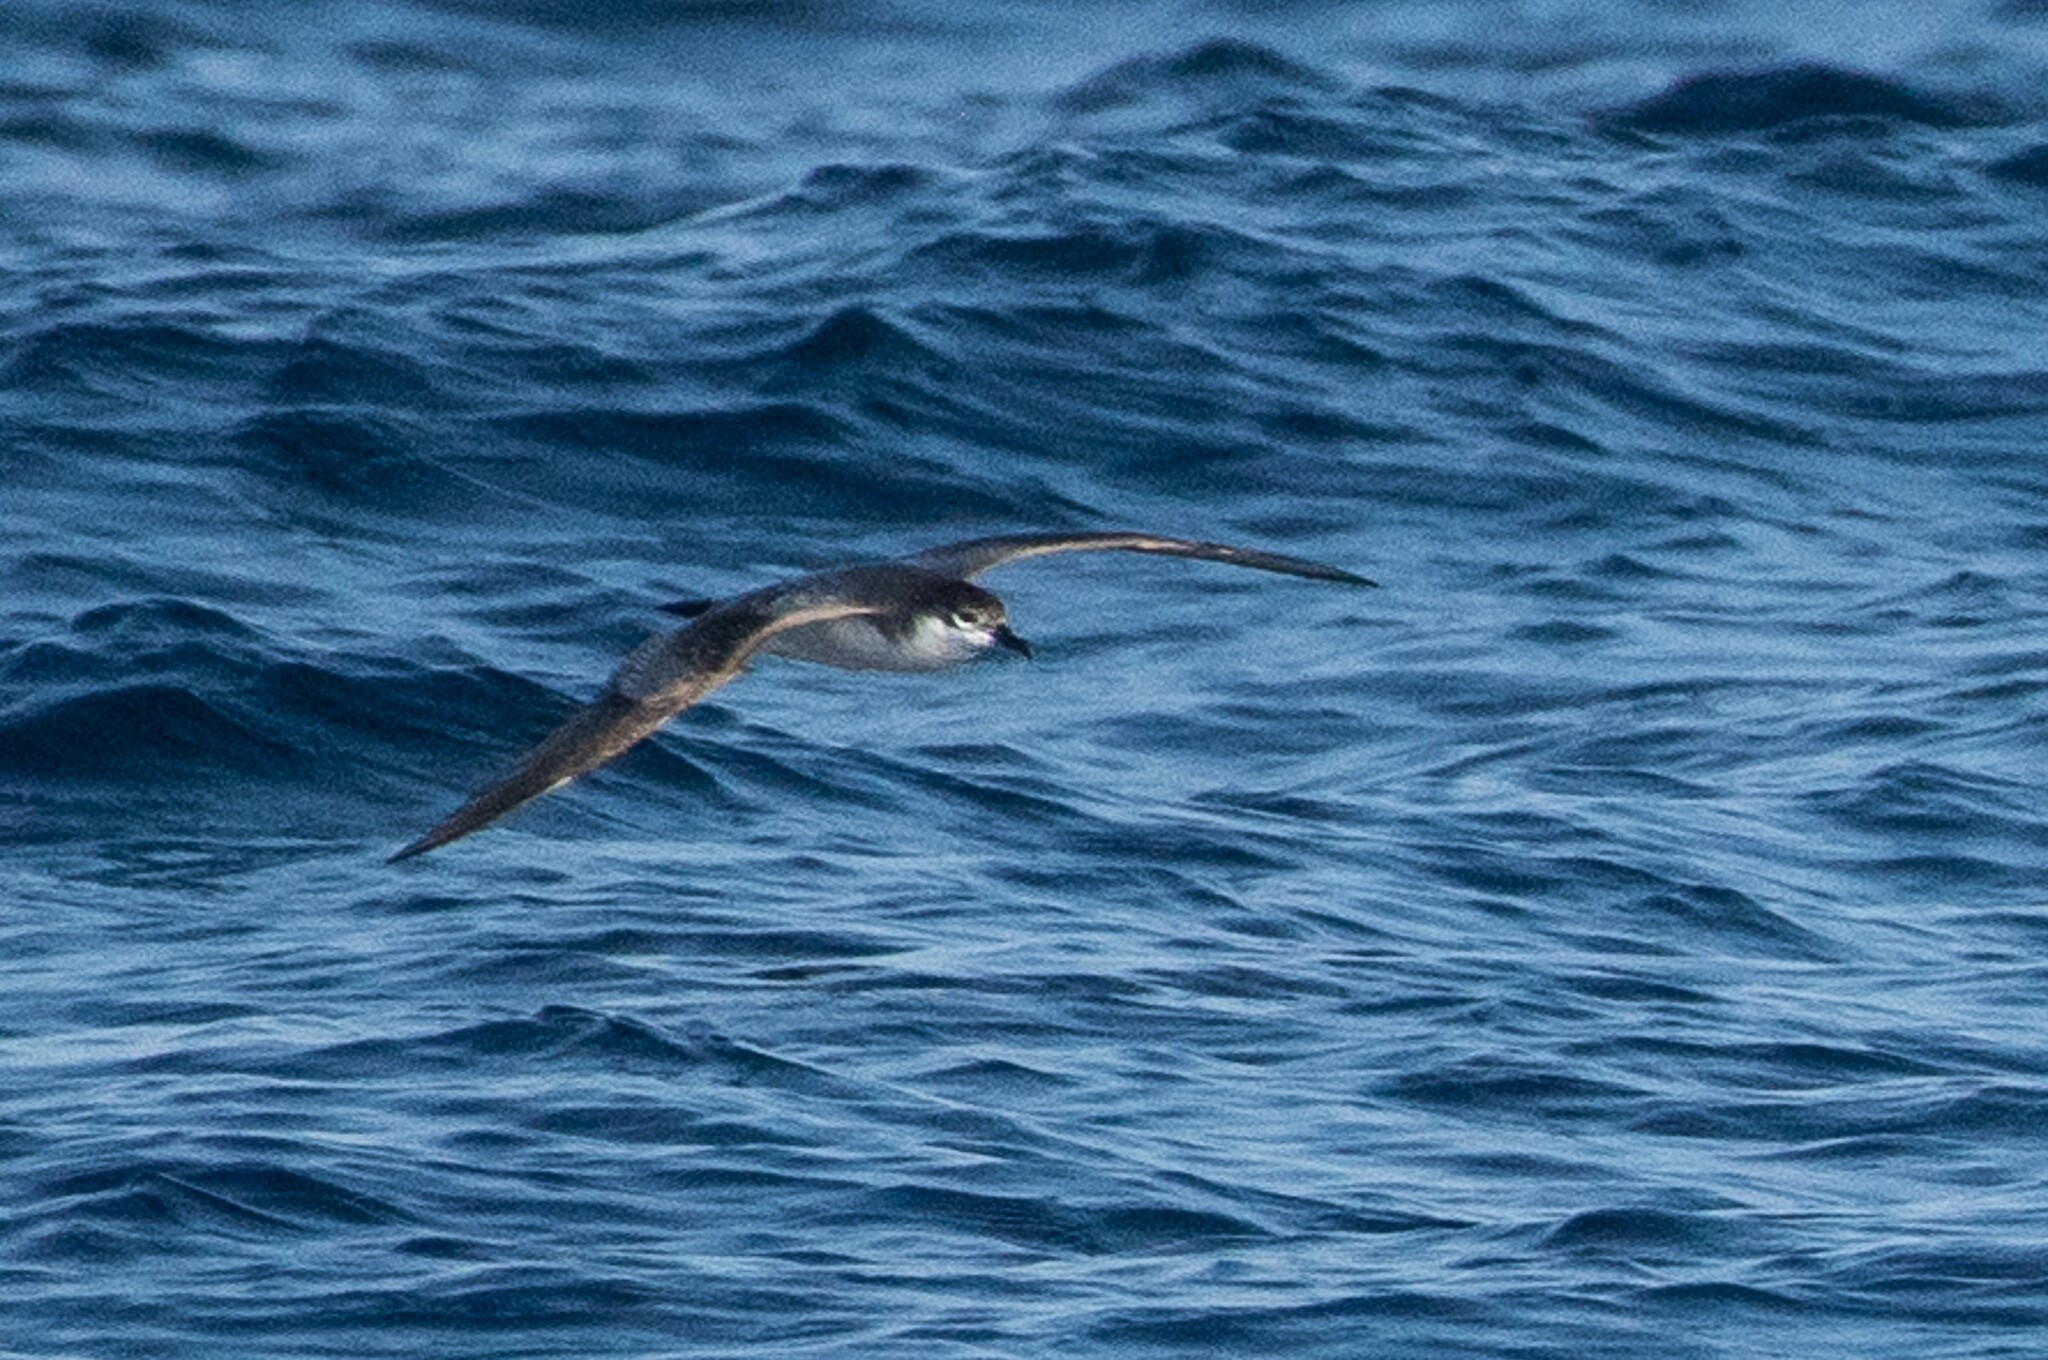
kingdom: Animalia
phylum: Chordata
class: Aves
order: Procellariiformes
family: Procellariidae
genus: Puffinus
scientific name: Puffinus bulleri
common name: Buller's shearwater
